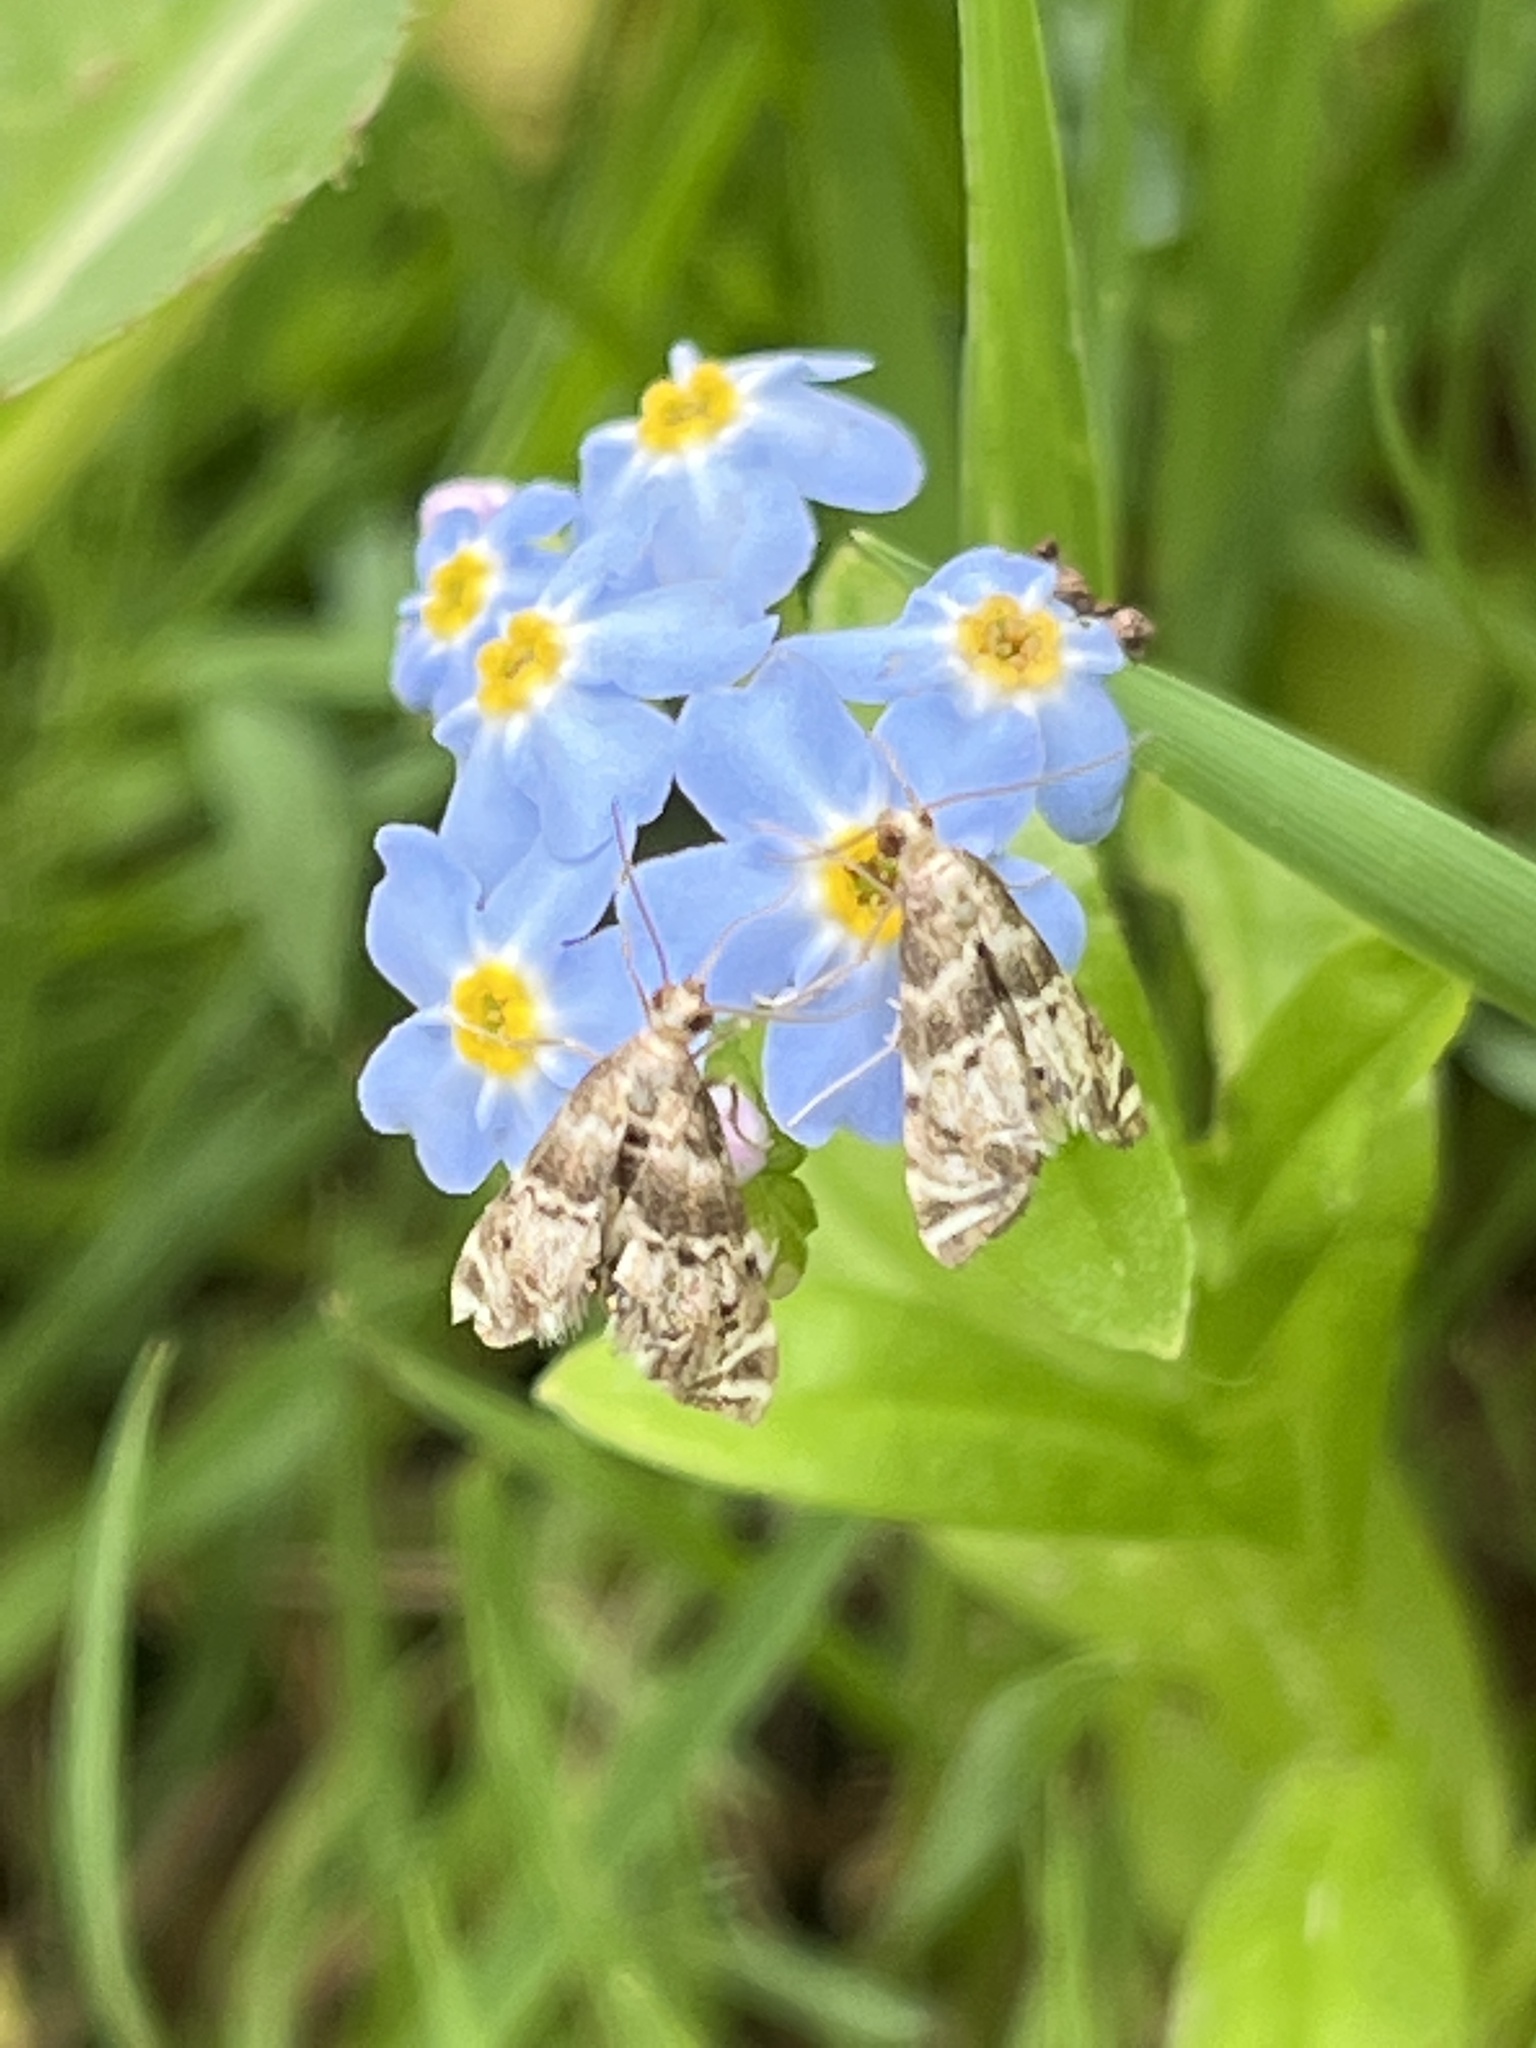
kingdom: Animalia
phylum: Arthropoda
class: Insecta
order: Lepidoptera
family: Crambidae
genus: Petrophila
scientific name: Petrophila fulicalis
